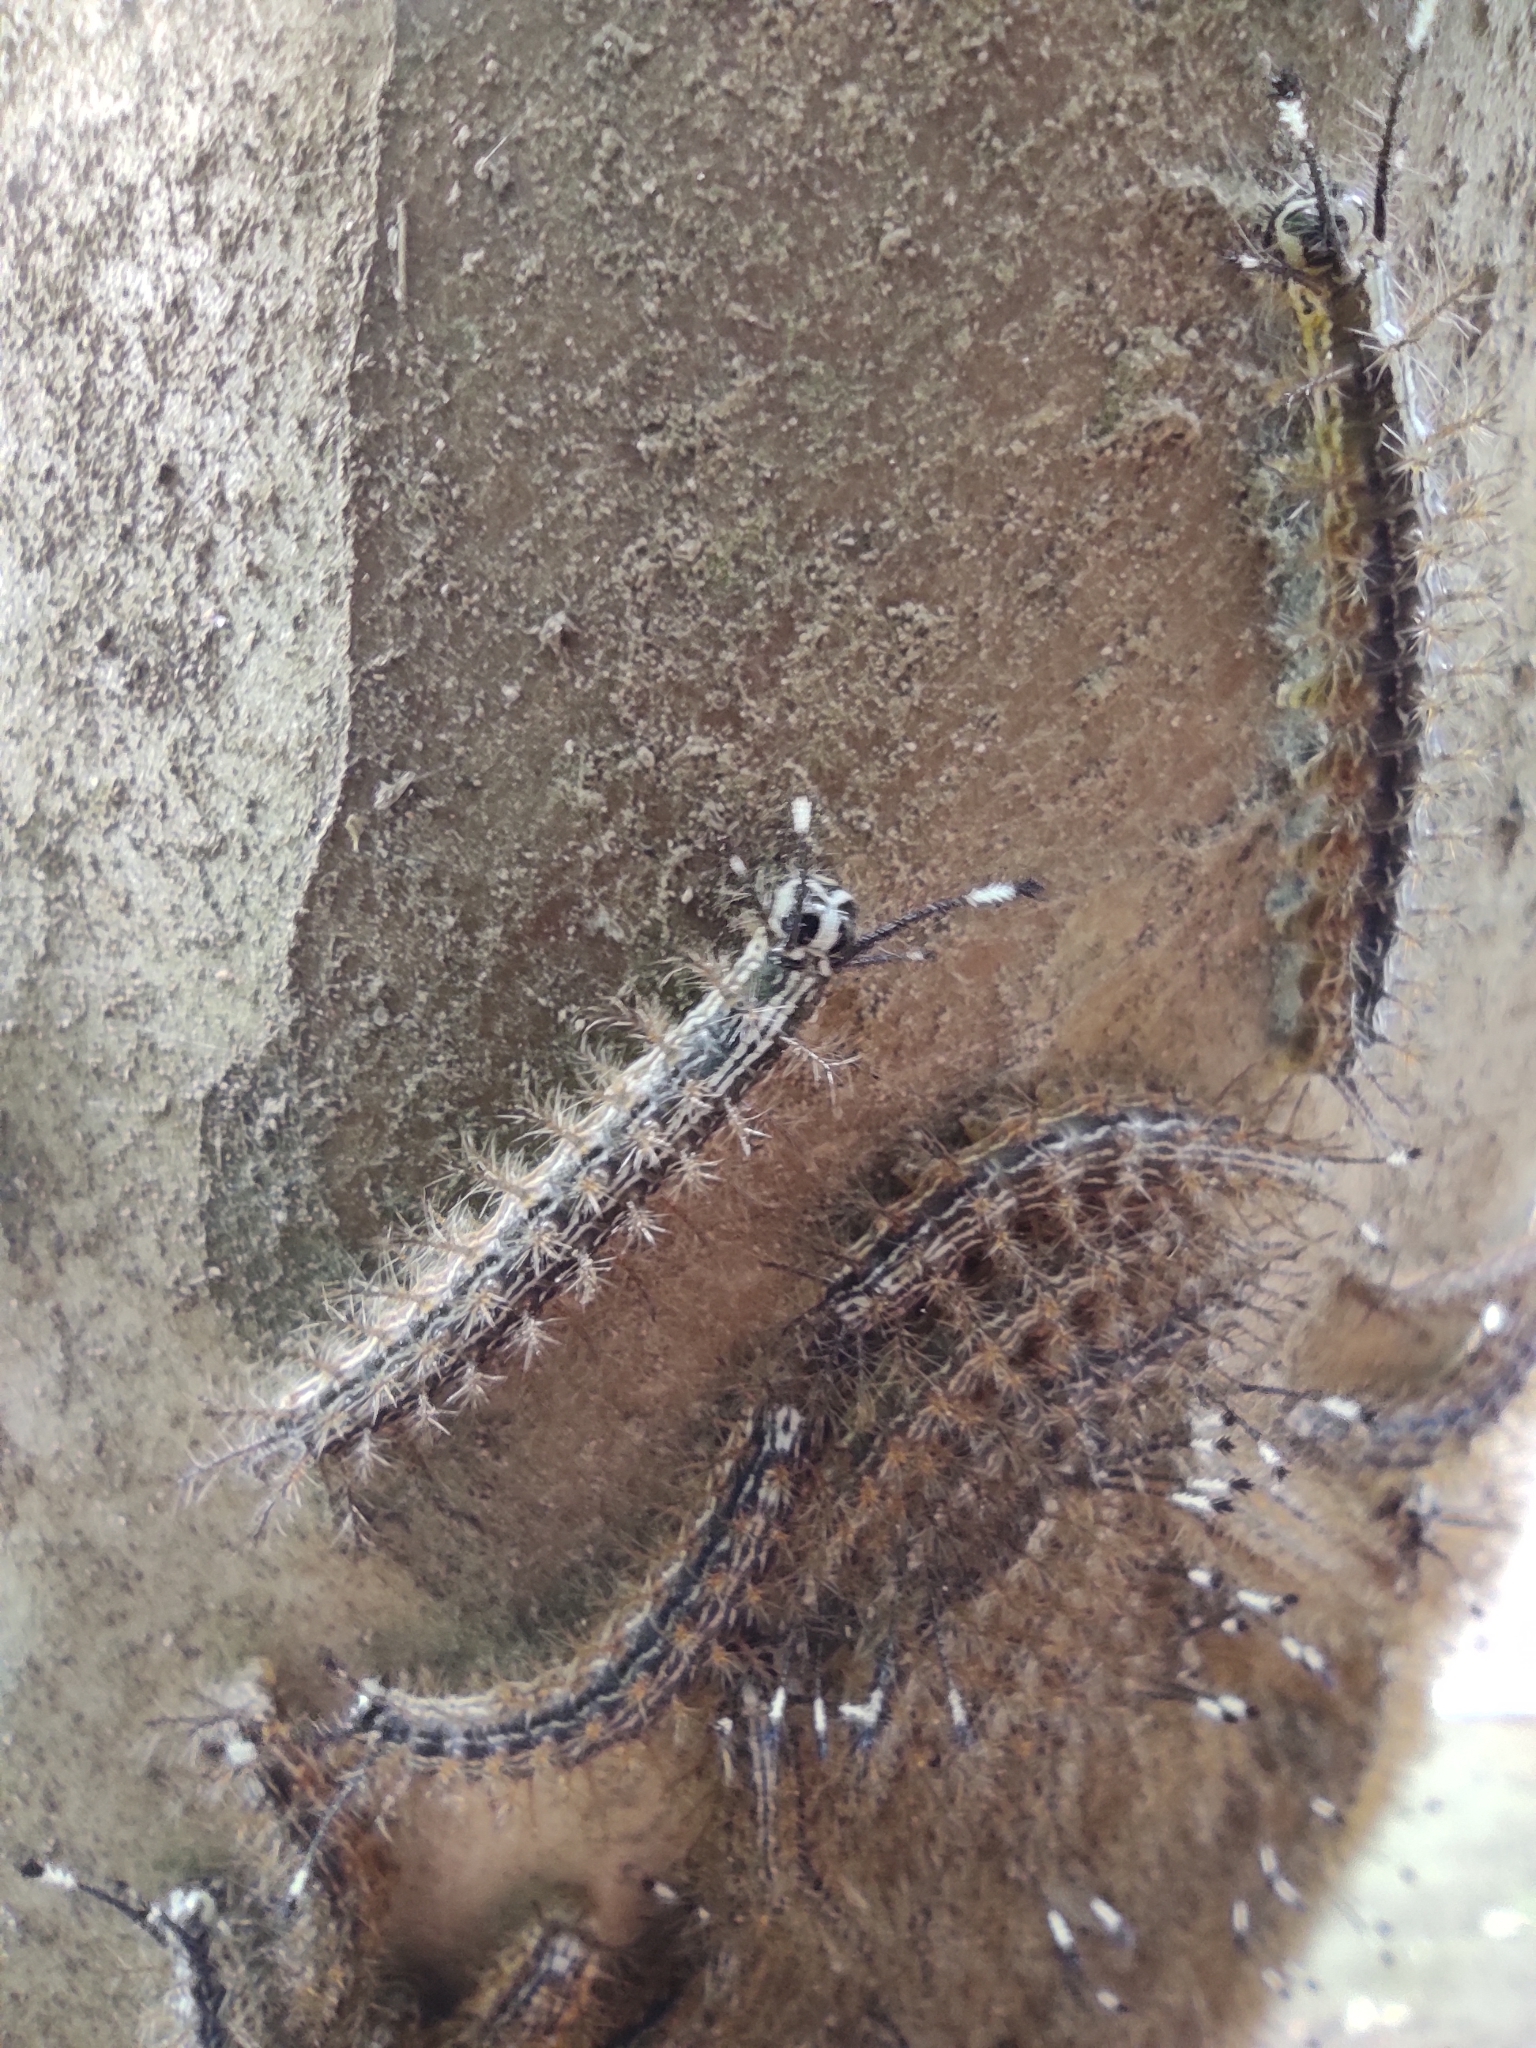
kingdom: Animalia
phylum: Arthropoda
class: Insecta
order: Lepidoptera
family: Saturniidae
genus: Hylesia
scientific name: Hylesia continua
